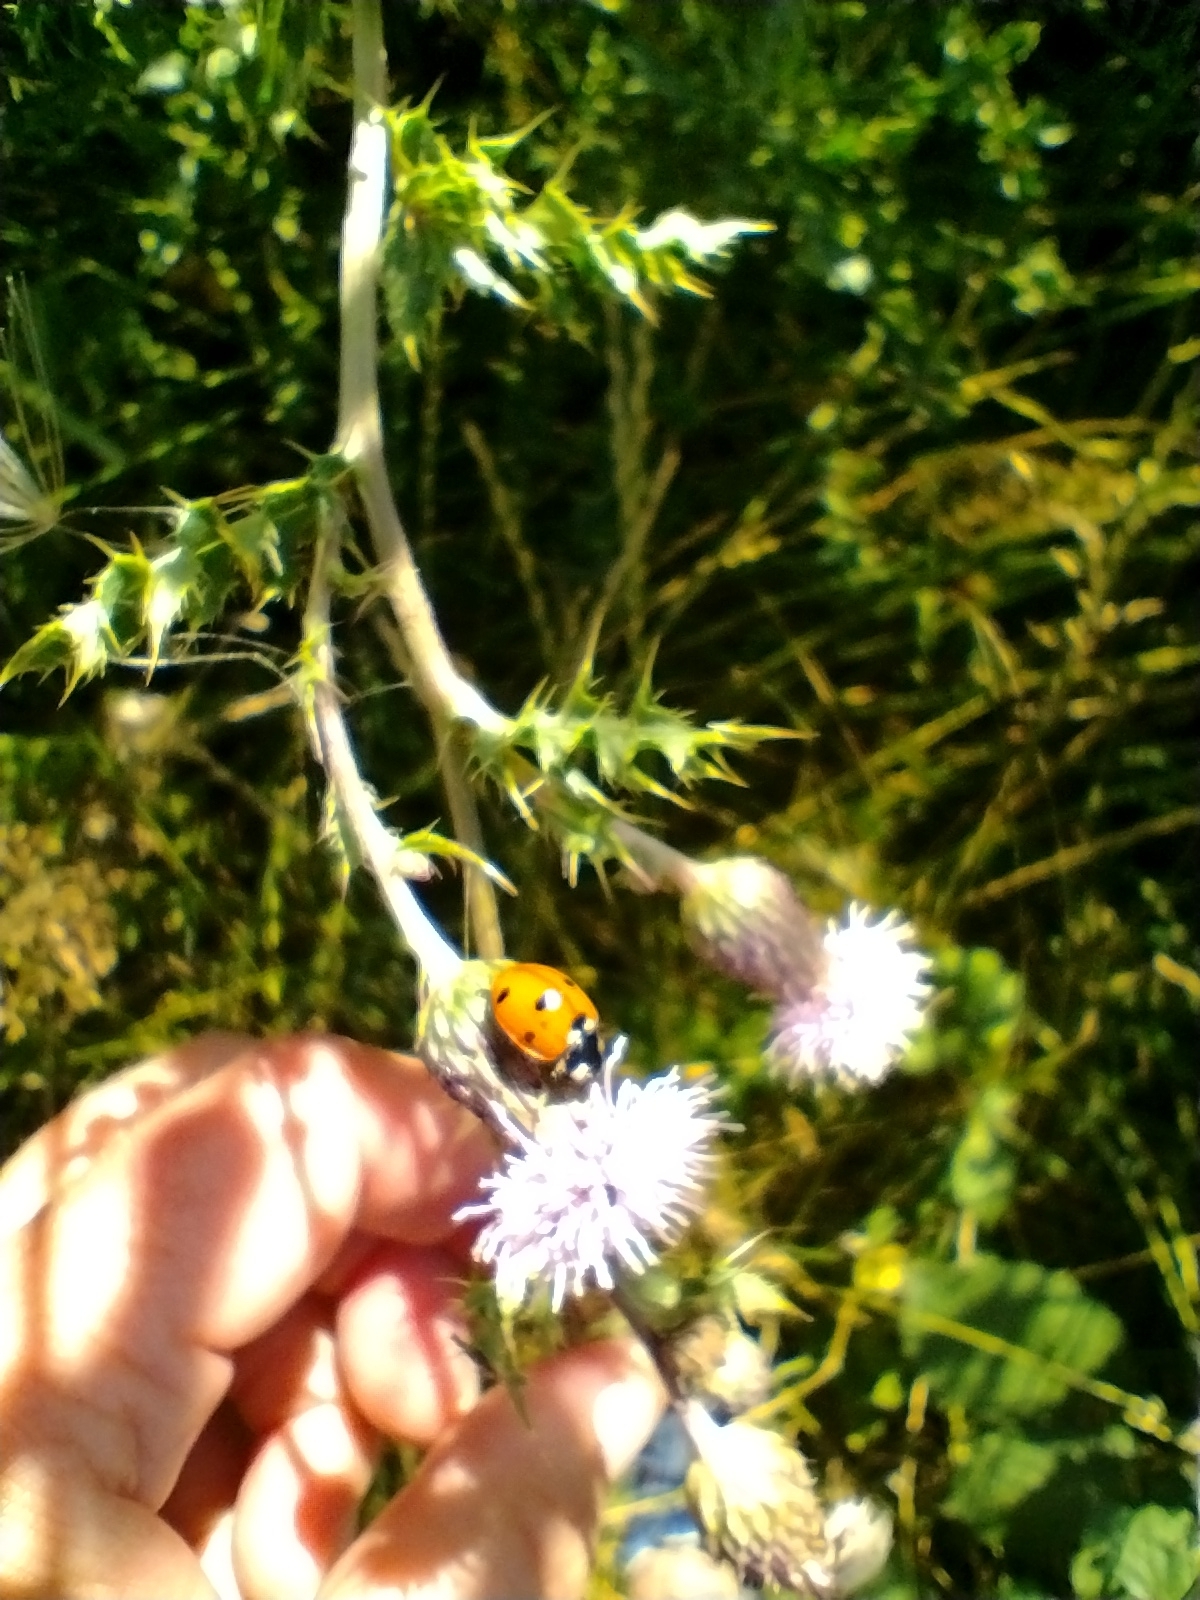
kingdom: Animalia
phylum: Arthropoda
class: Insecta
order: Coleoptera
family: Coccinellidae
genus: Coccinella
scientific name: Coccinella septempunctata
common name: Sevenspotted lady beetle
